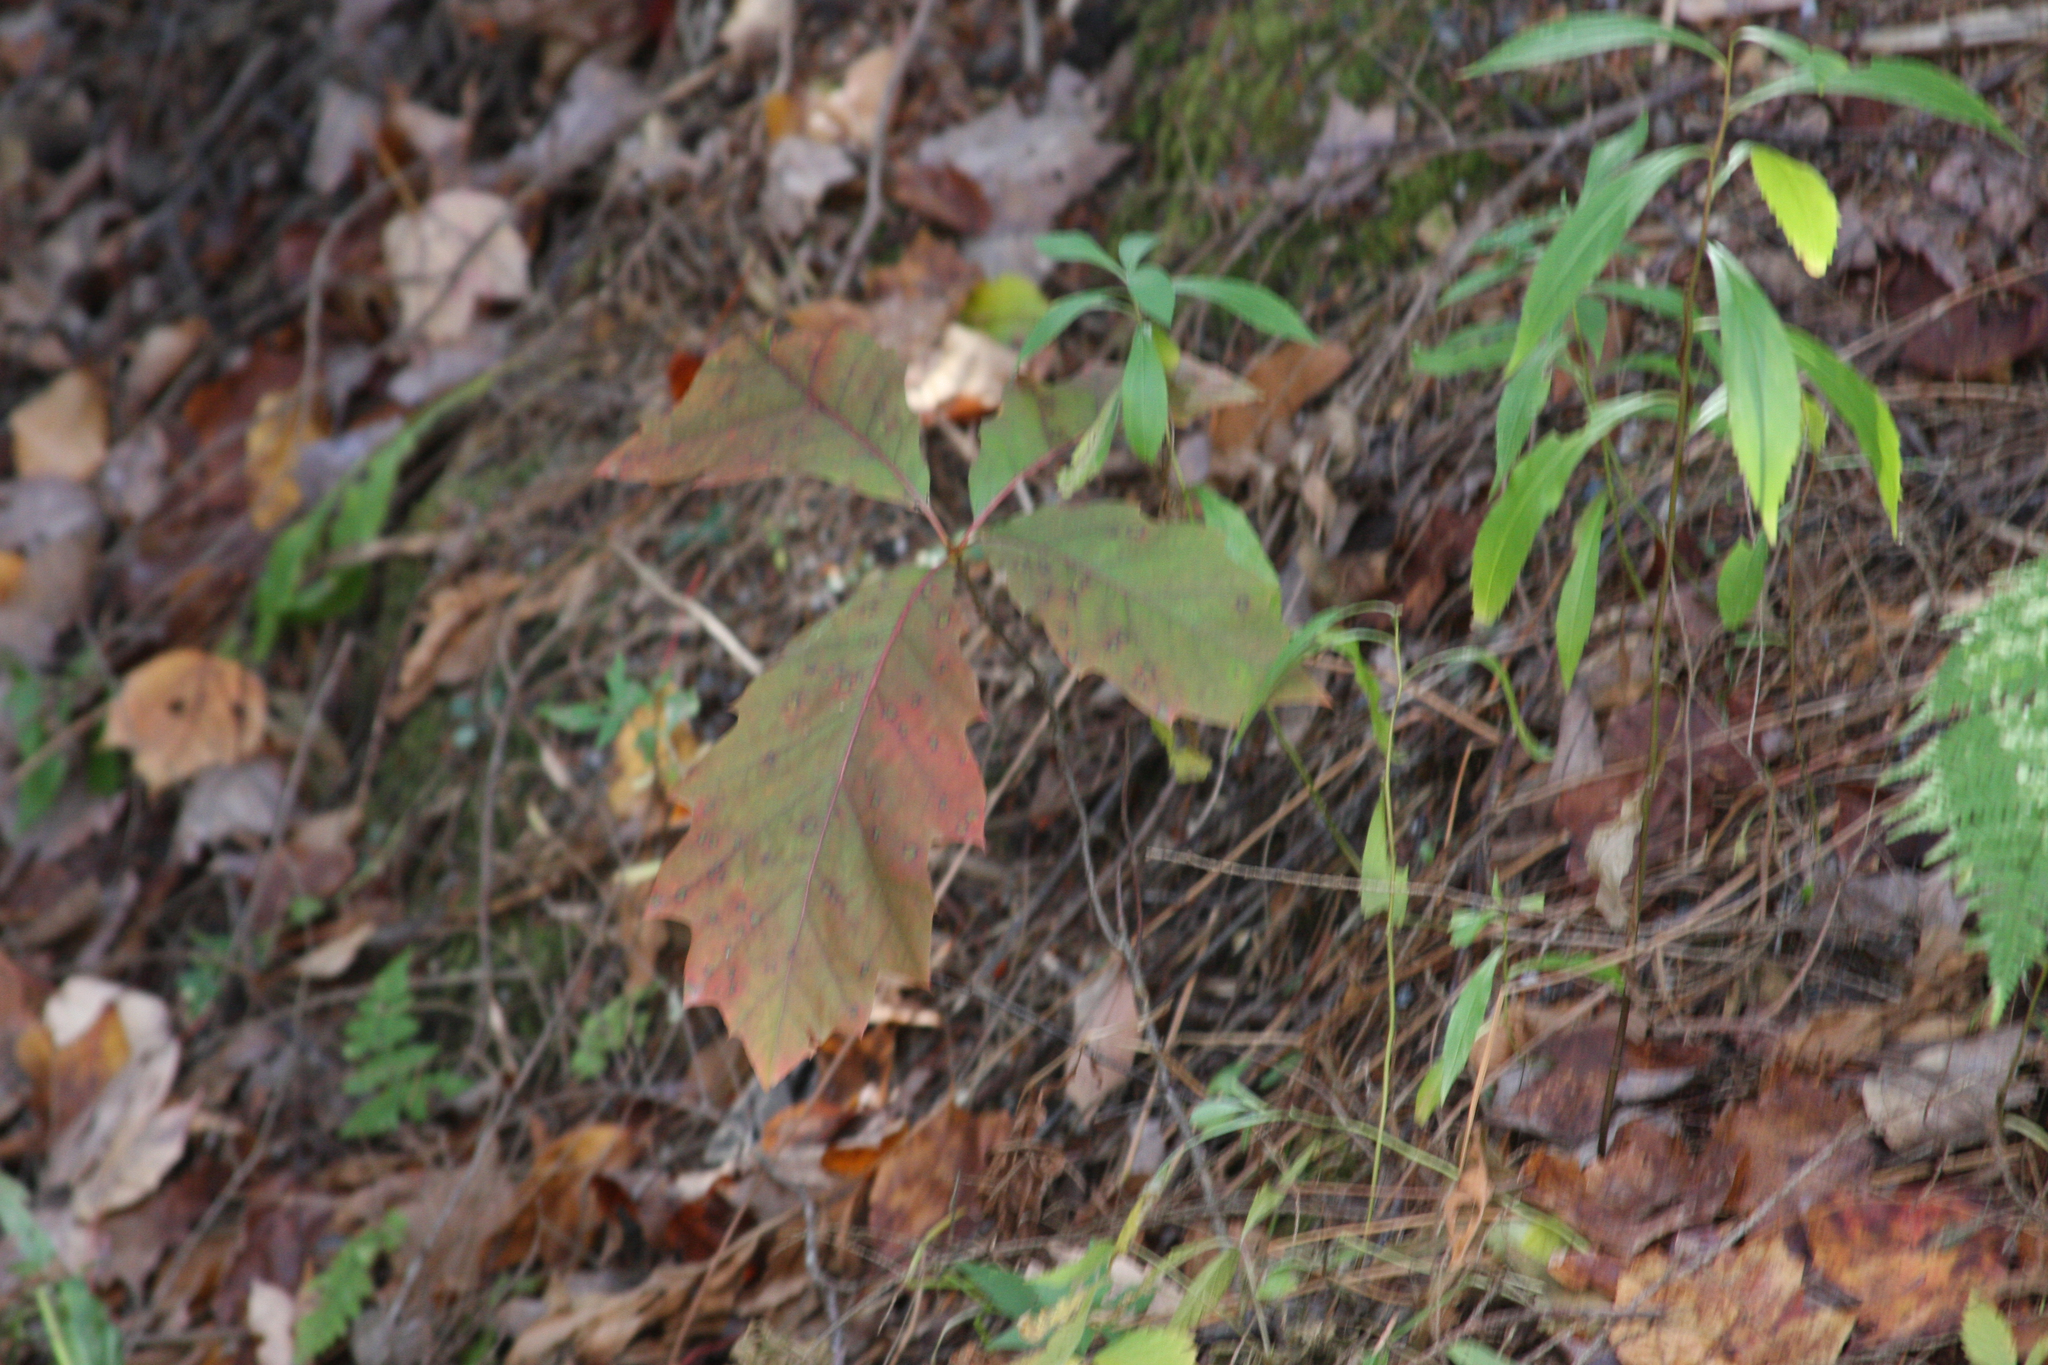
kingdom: Plantae
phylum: Tracheophyta
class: Magnoliopsida
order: Fagales
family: Fagaceae
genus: Quercus
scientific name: Quercus rubra
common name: Red oak
